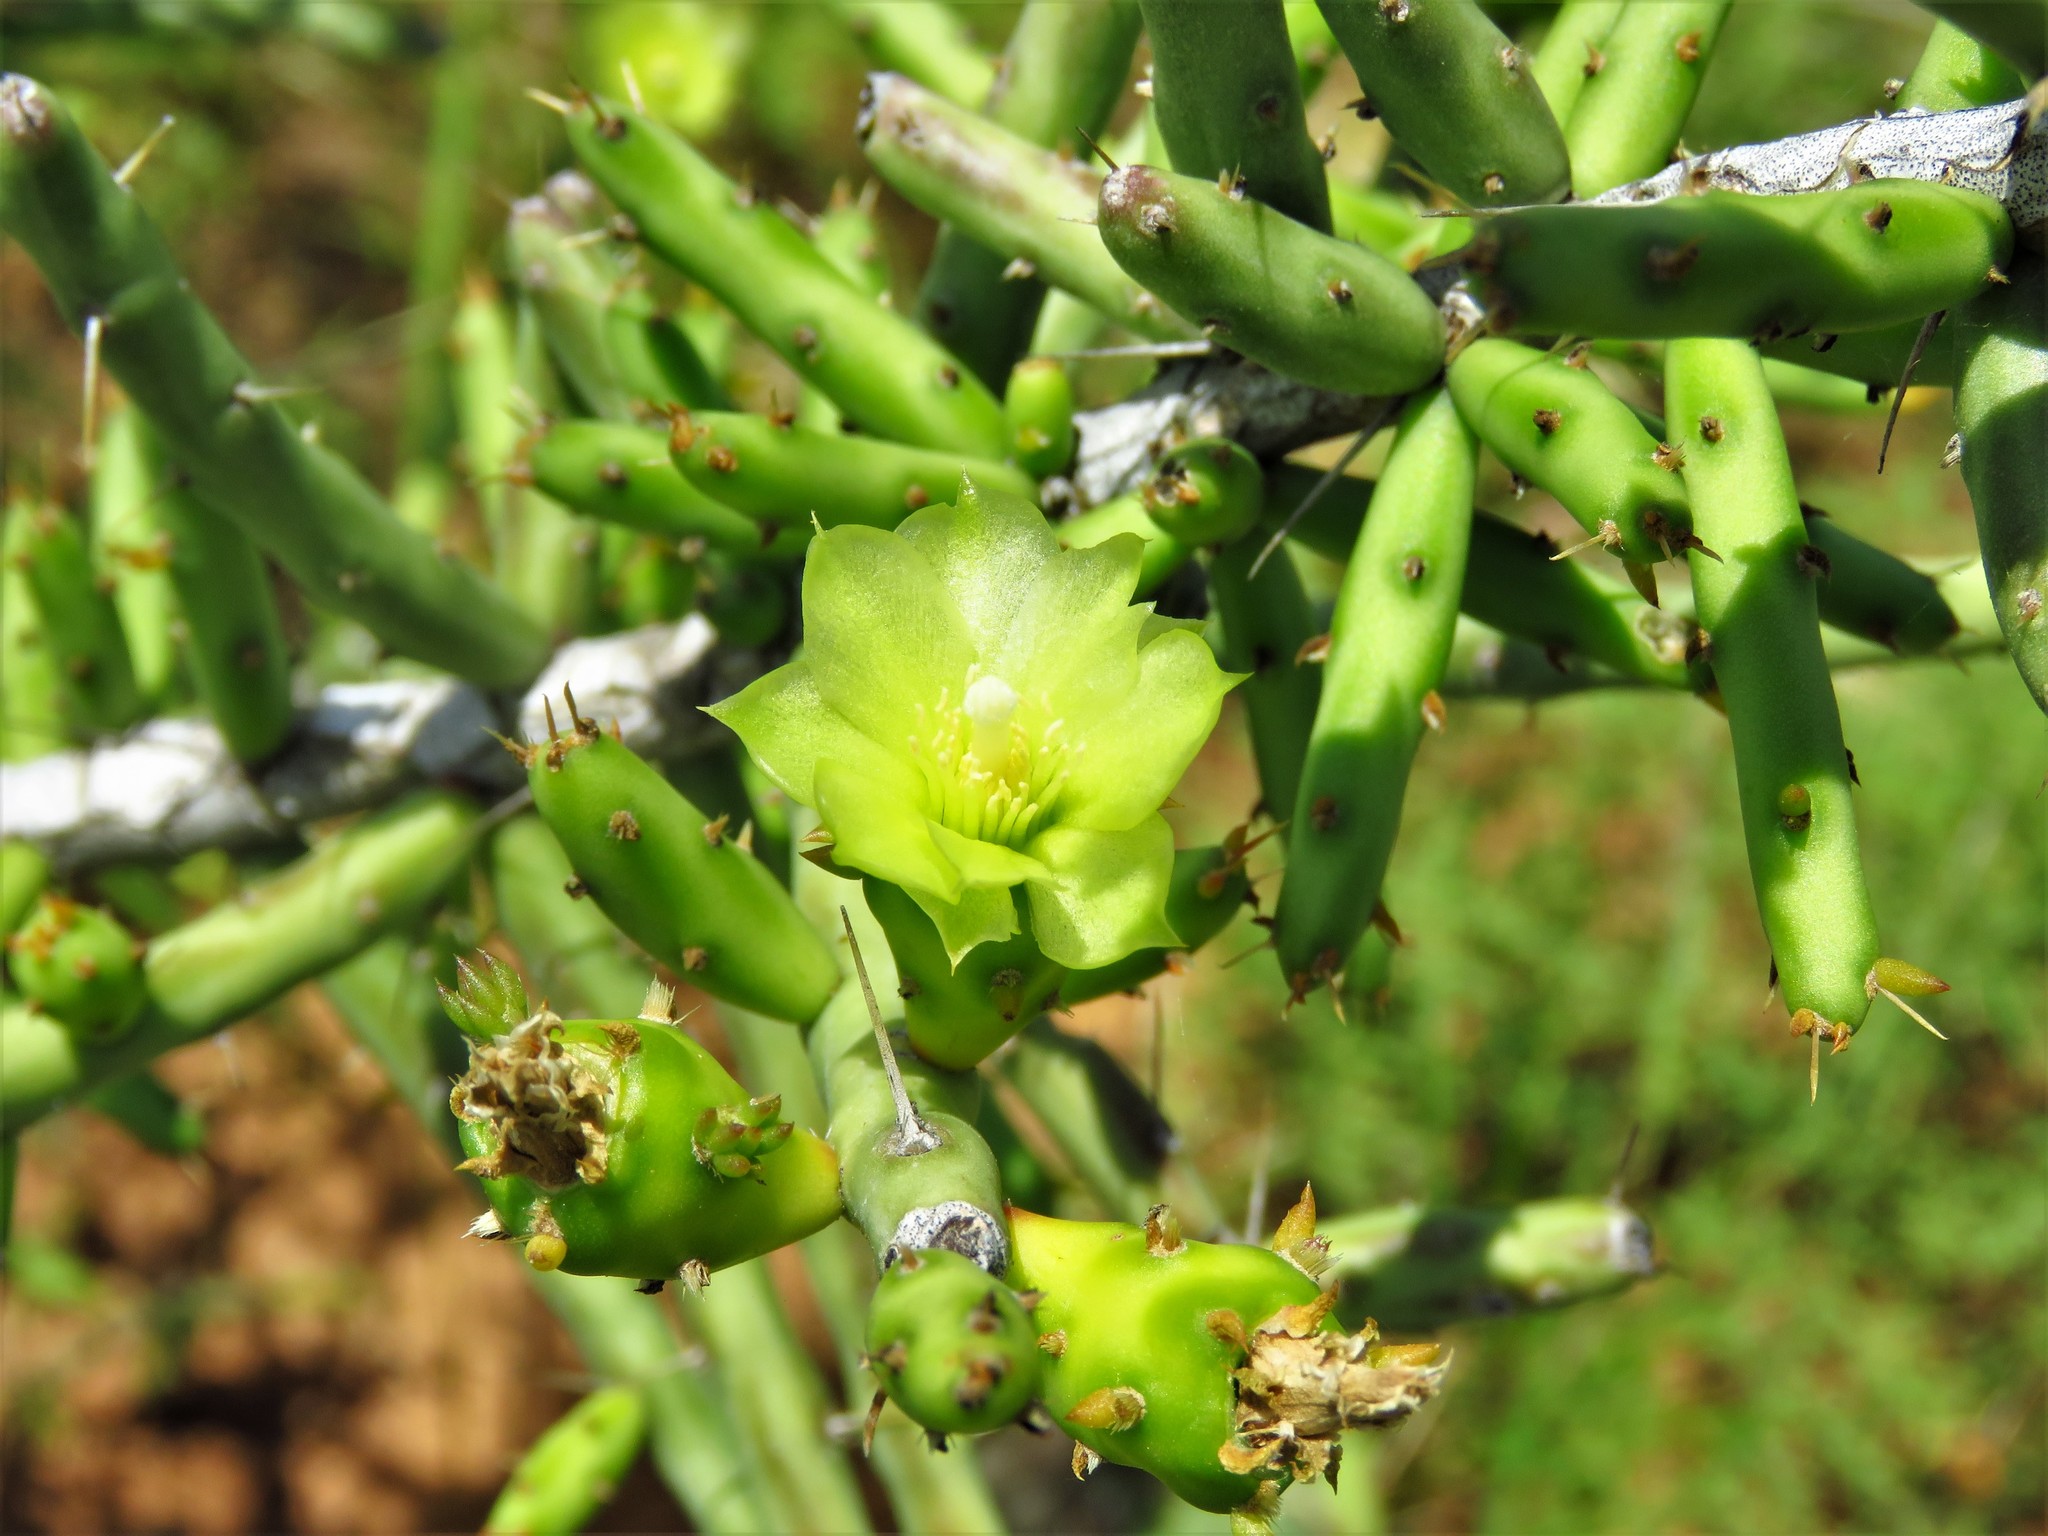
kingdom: Plantae
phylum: Tracheophyta
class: Magnoliopsida
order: Caryophyllales
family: Cactaceae
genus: Cylindropuntia
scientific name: Cylindropuntia leptocaulis
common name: Christmas cactus
